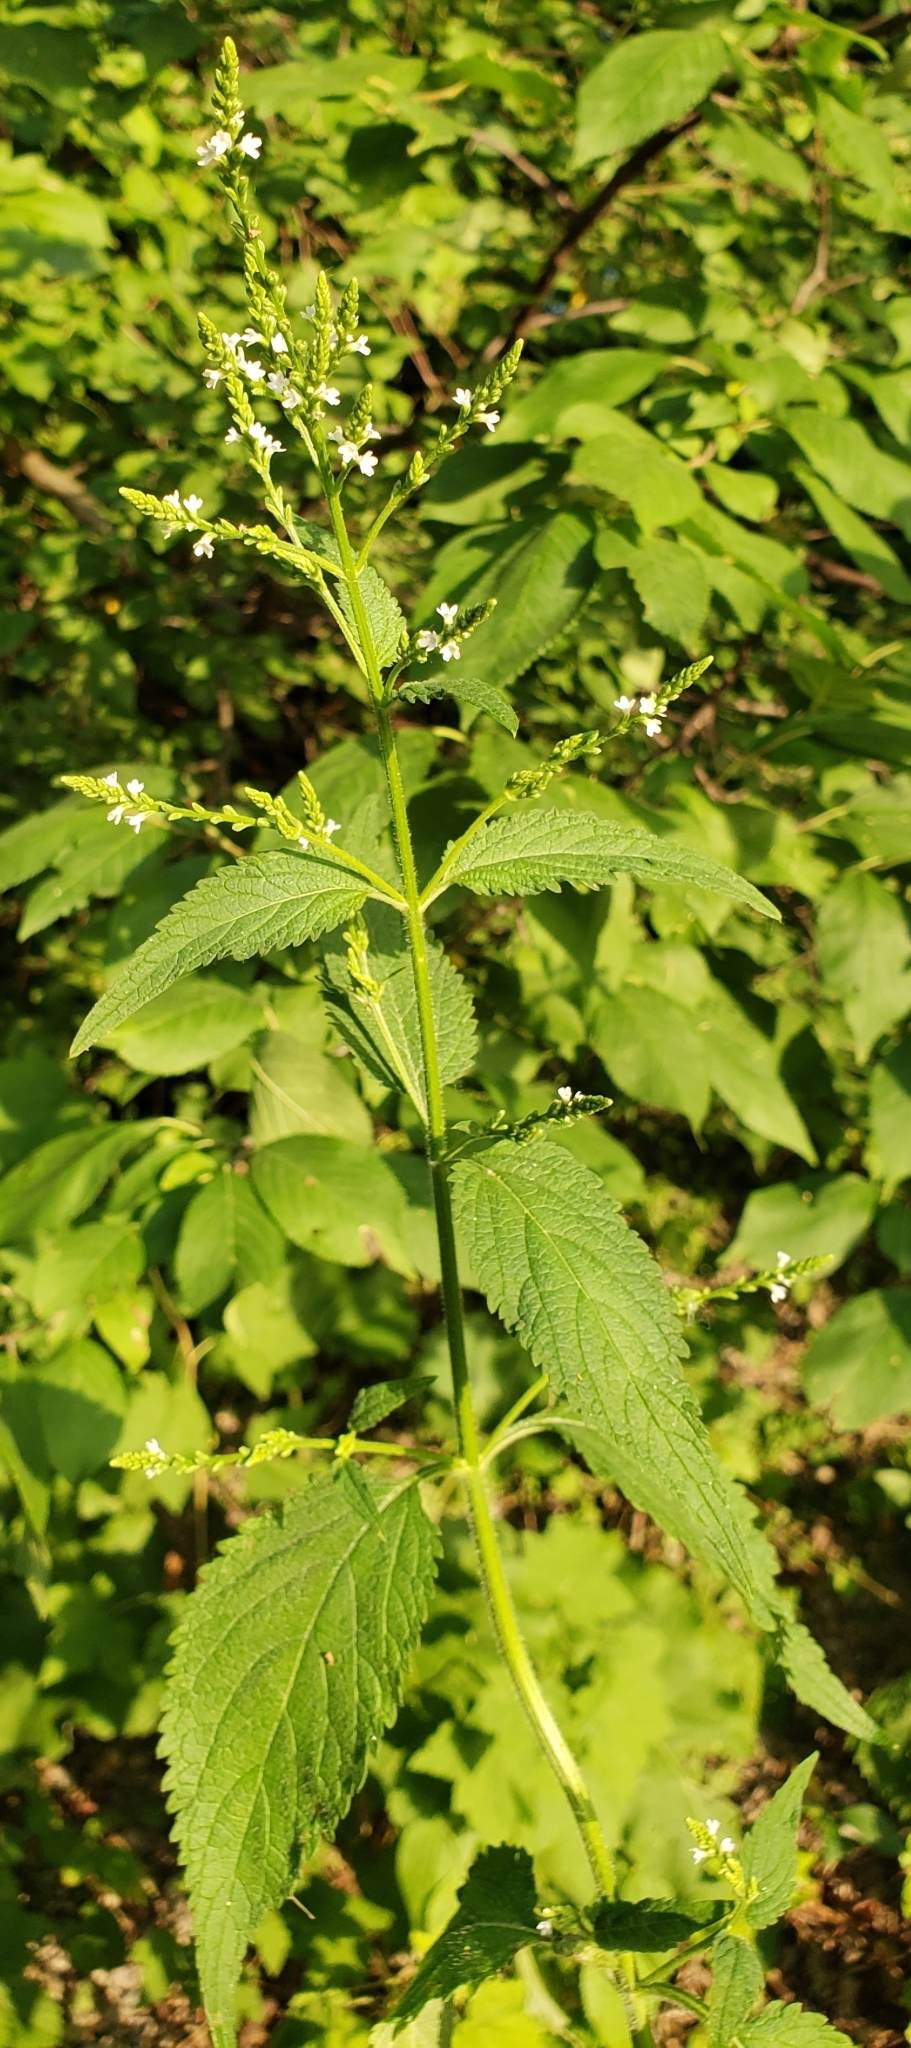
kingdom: Plantae
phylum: Tracheophyta
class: Magnoliopsida
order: Lamiales
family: Verbenaceae
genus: Verbena
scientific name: Verbena urticifolia
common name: Nettle-leaved vervain
